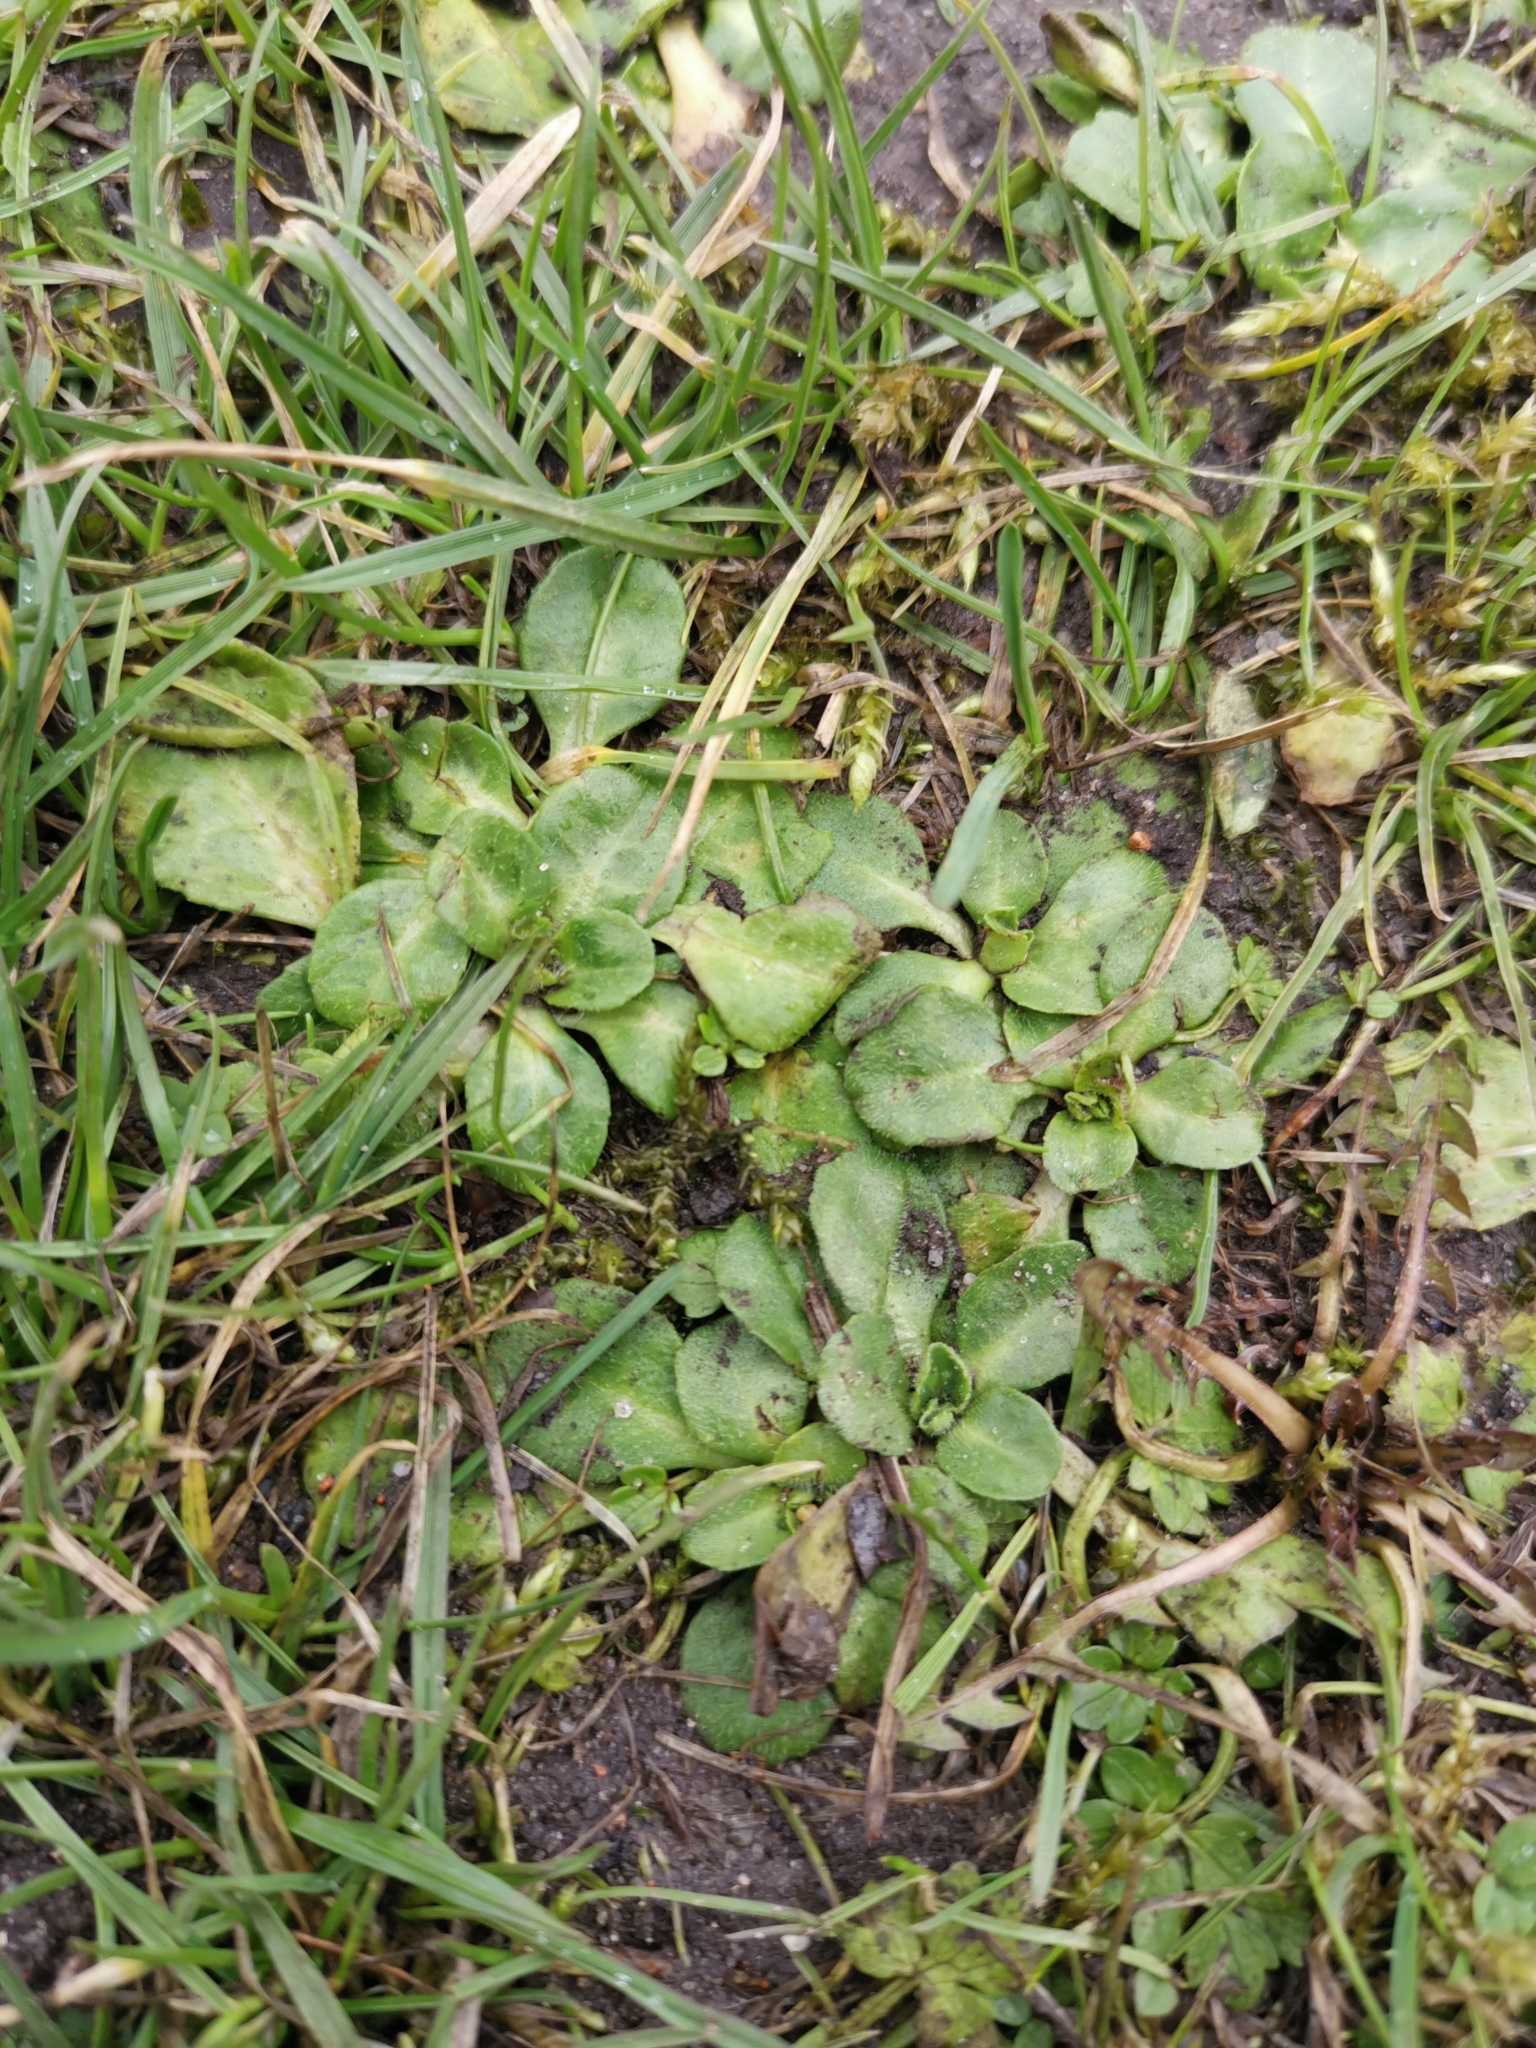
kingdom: Plantae
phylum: Tracheophyta
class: Magnoliopsida
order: Asterales
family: Asteraceae
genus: Bellis
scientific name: Bellis perennis
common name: Lawndaisy
